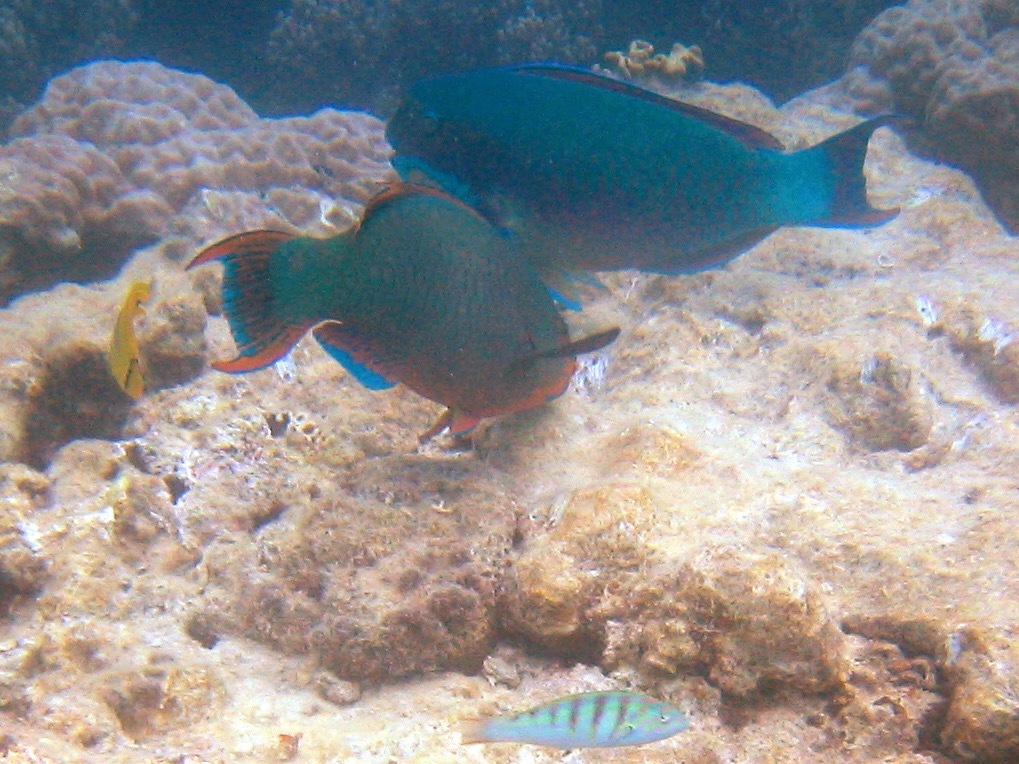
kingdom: Animalia
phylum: Chordata
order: Perciformes
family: Scaridae
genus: Scarus
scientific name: Scarus altipinnis
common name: Minifin parrotfish
